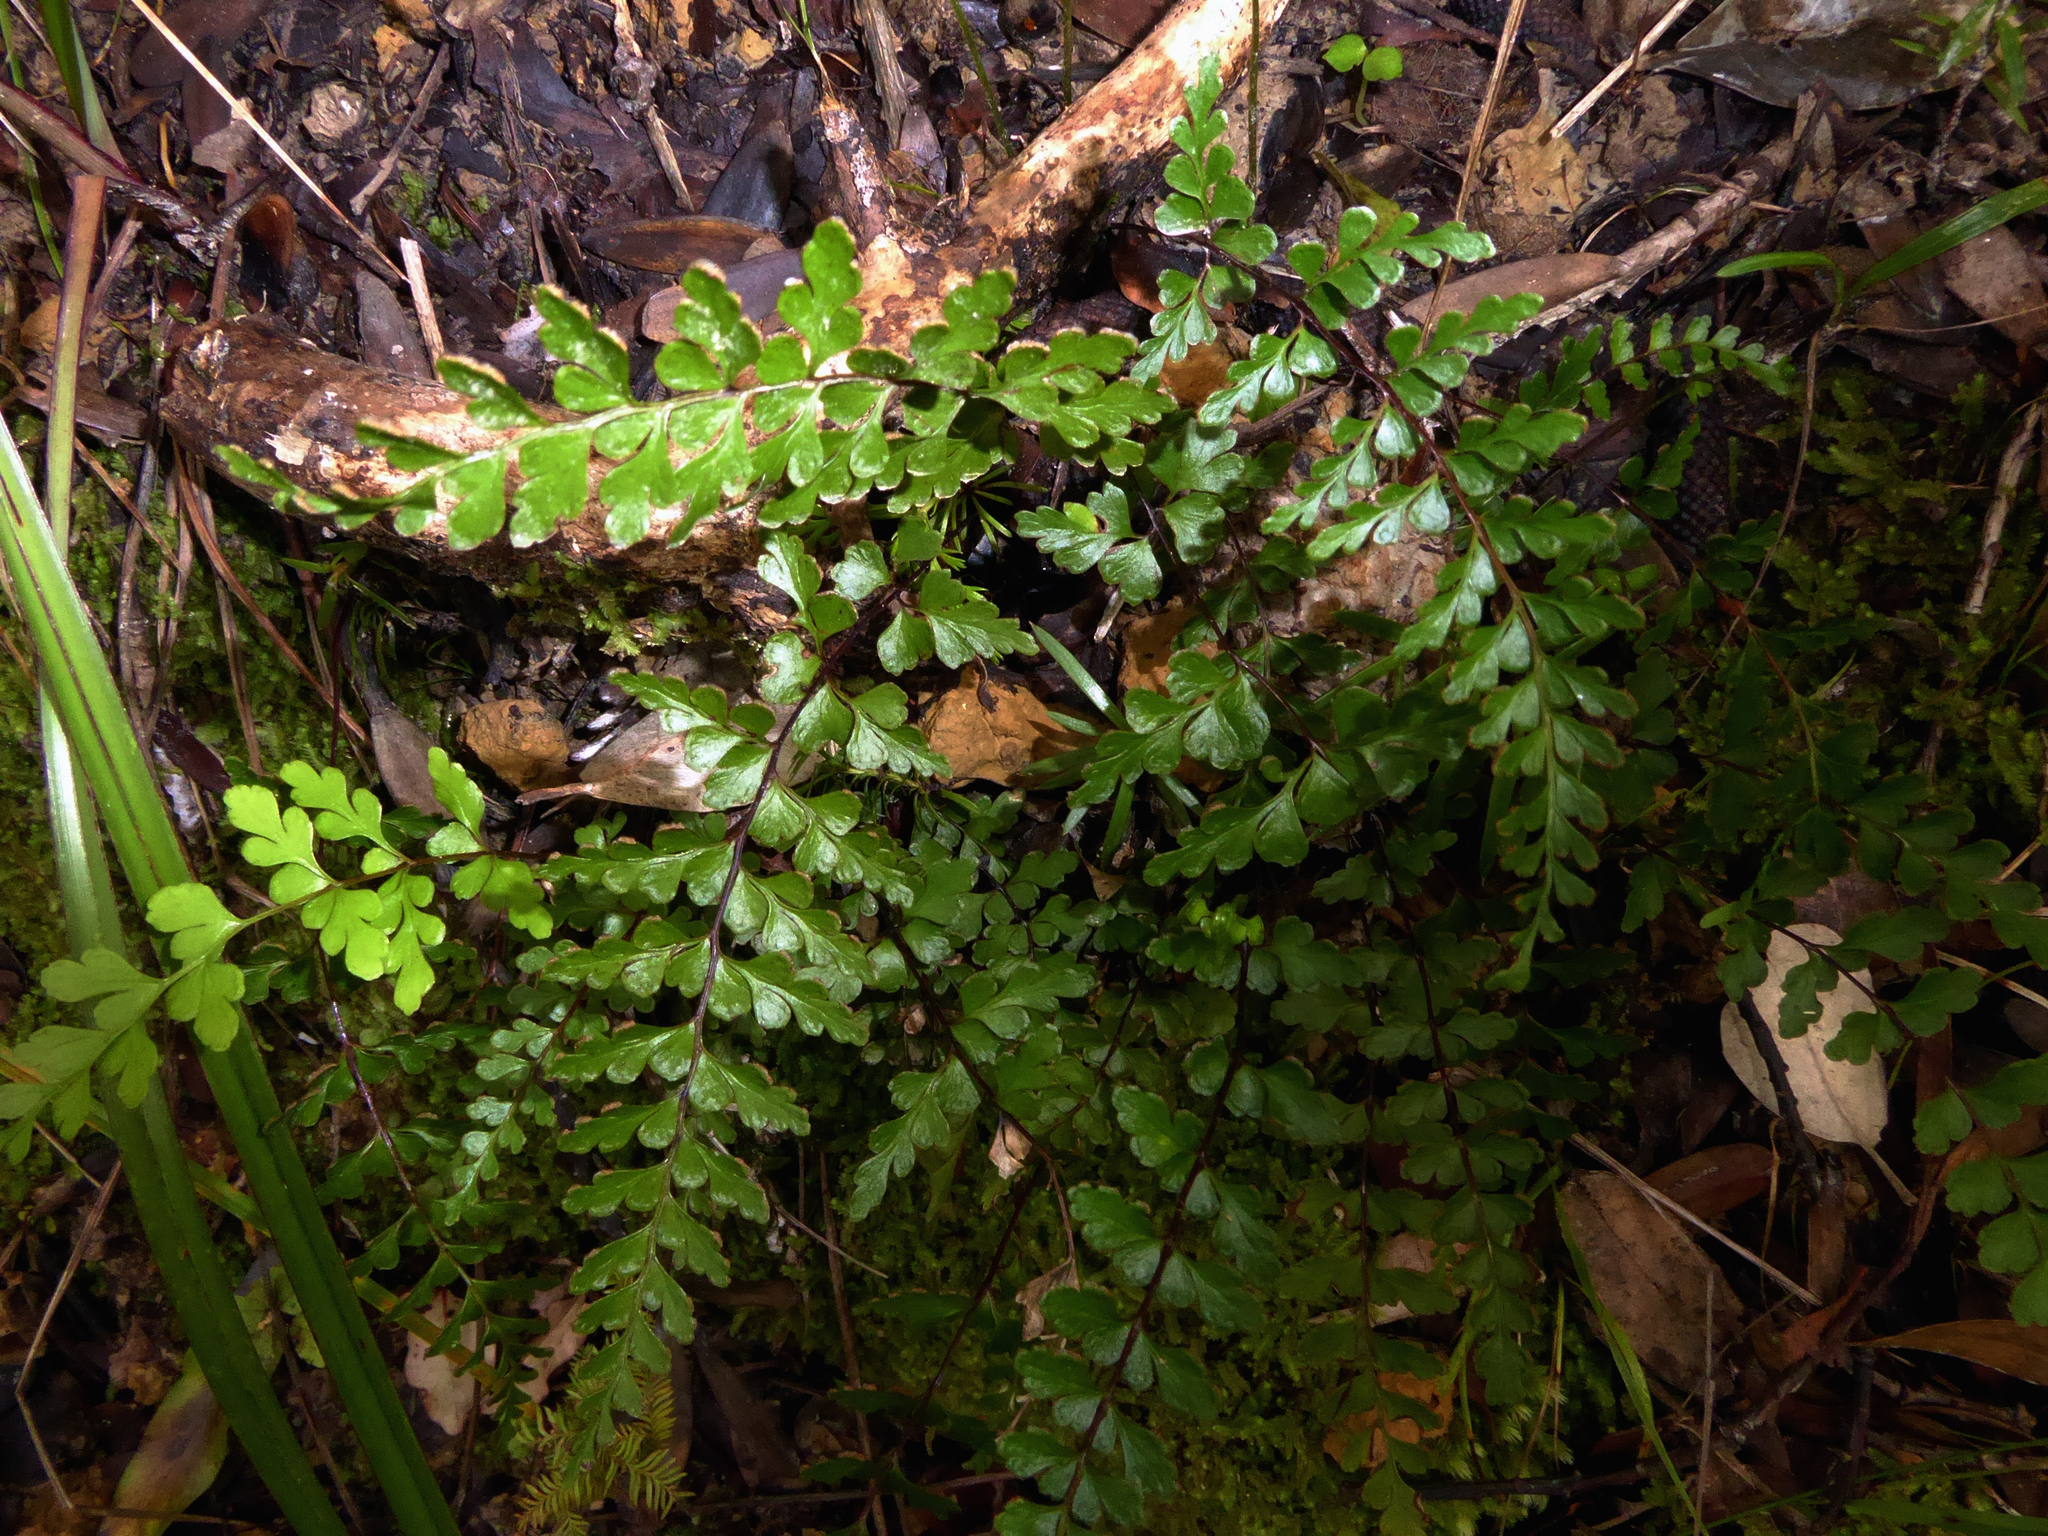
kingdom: Plantae
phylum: Tracheophyta
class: Polypodiopsida
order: Polypodiales
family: Lindsaeaceae
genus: Lindsaea
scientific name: Lindsaea trichomanoides
